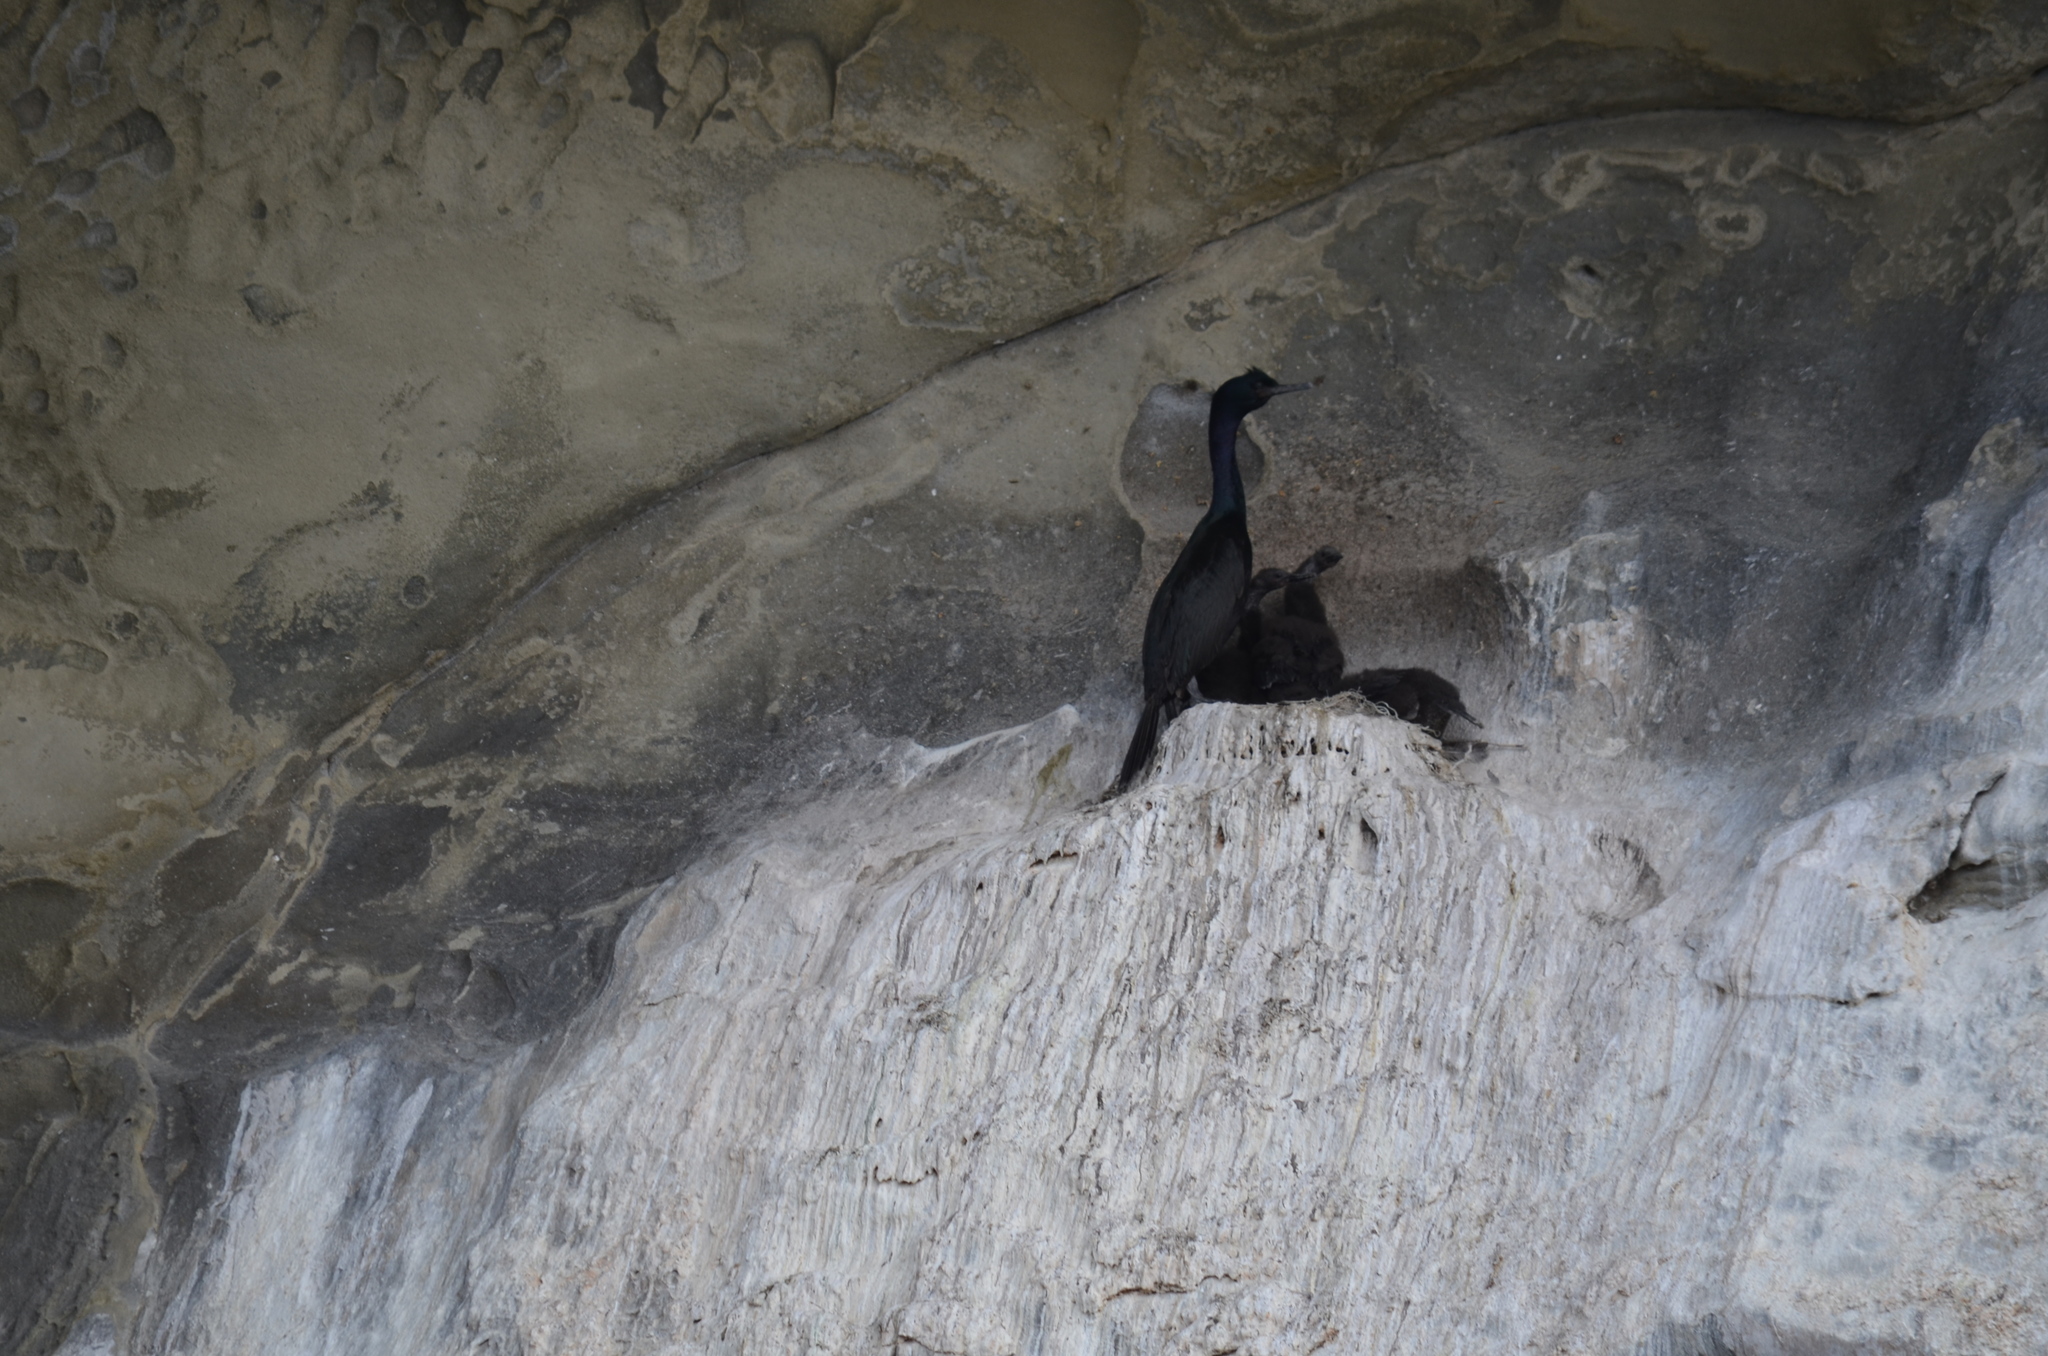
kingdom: Animalia
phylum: Chordata
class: Aves
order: Suliformes
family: Phalacrocoracidae
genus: Phalacrocorax
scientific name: Phalacrocorax pelagicus
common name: Pelagic cormorant
